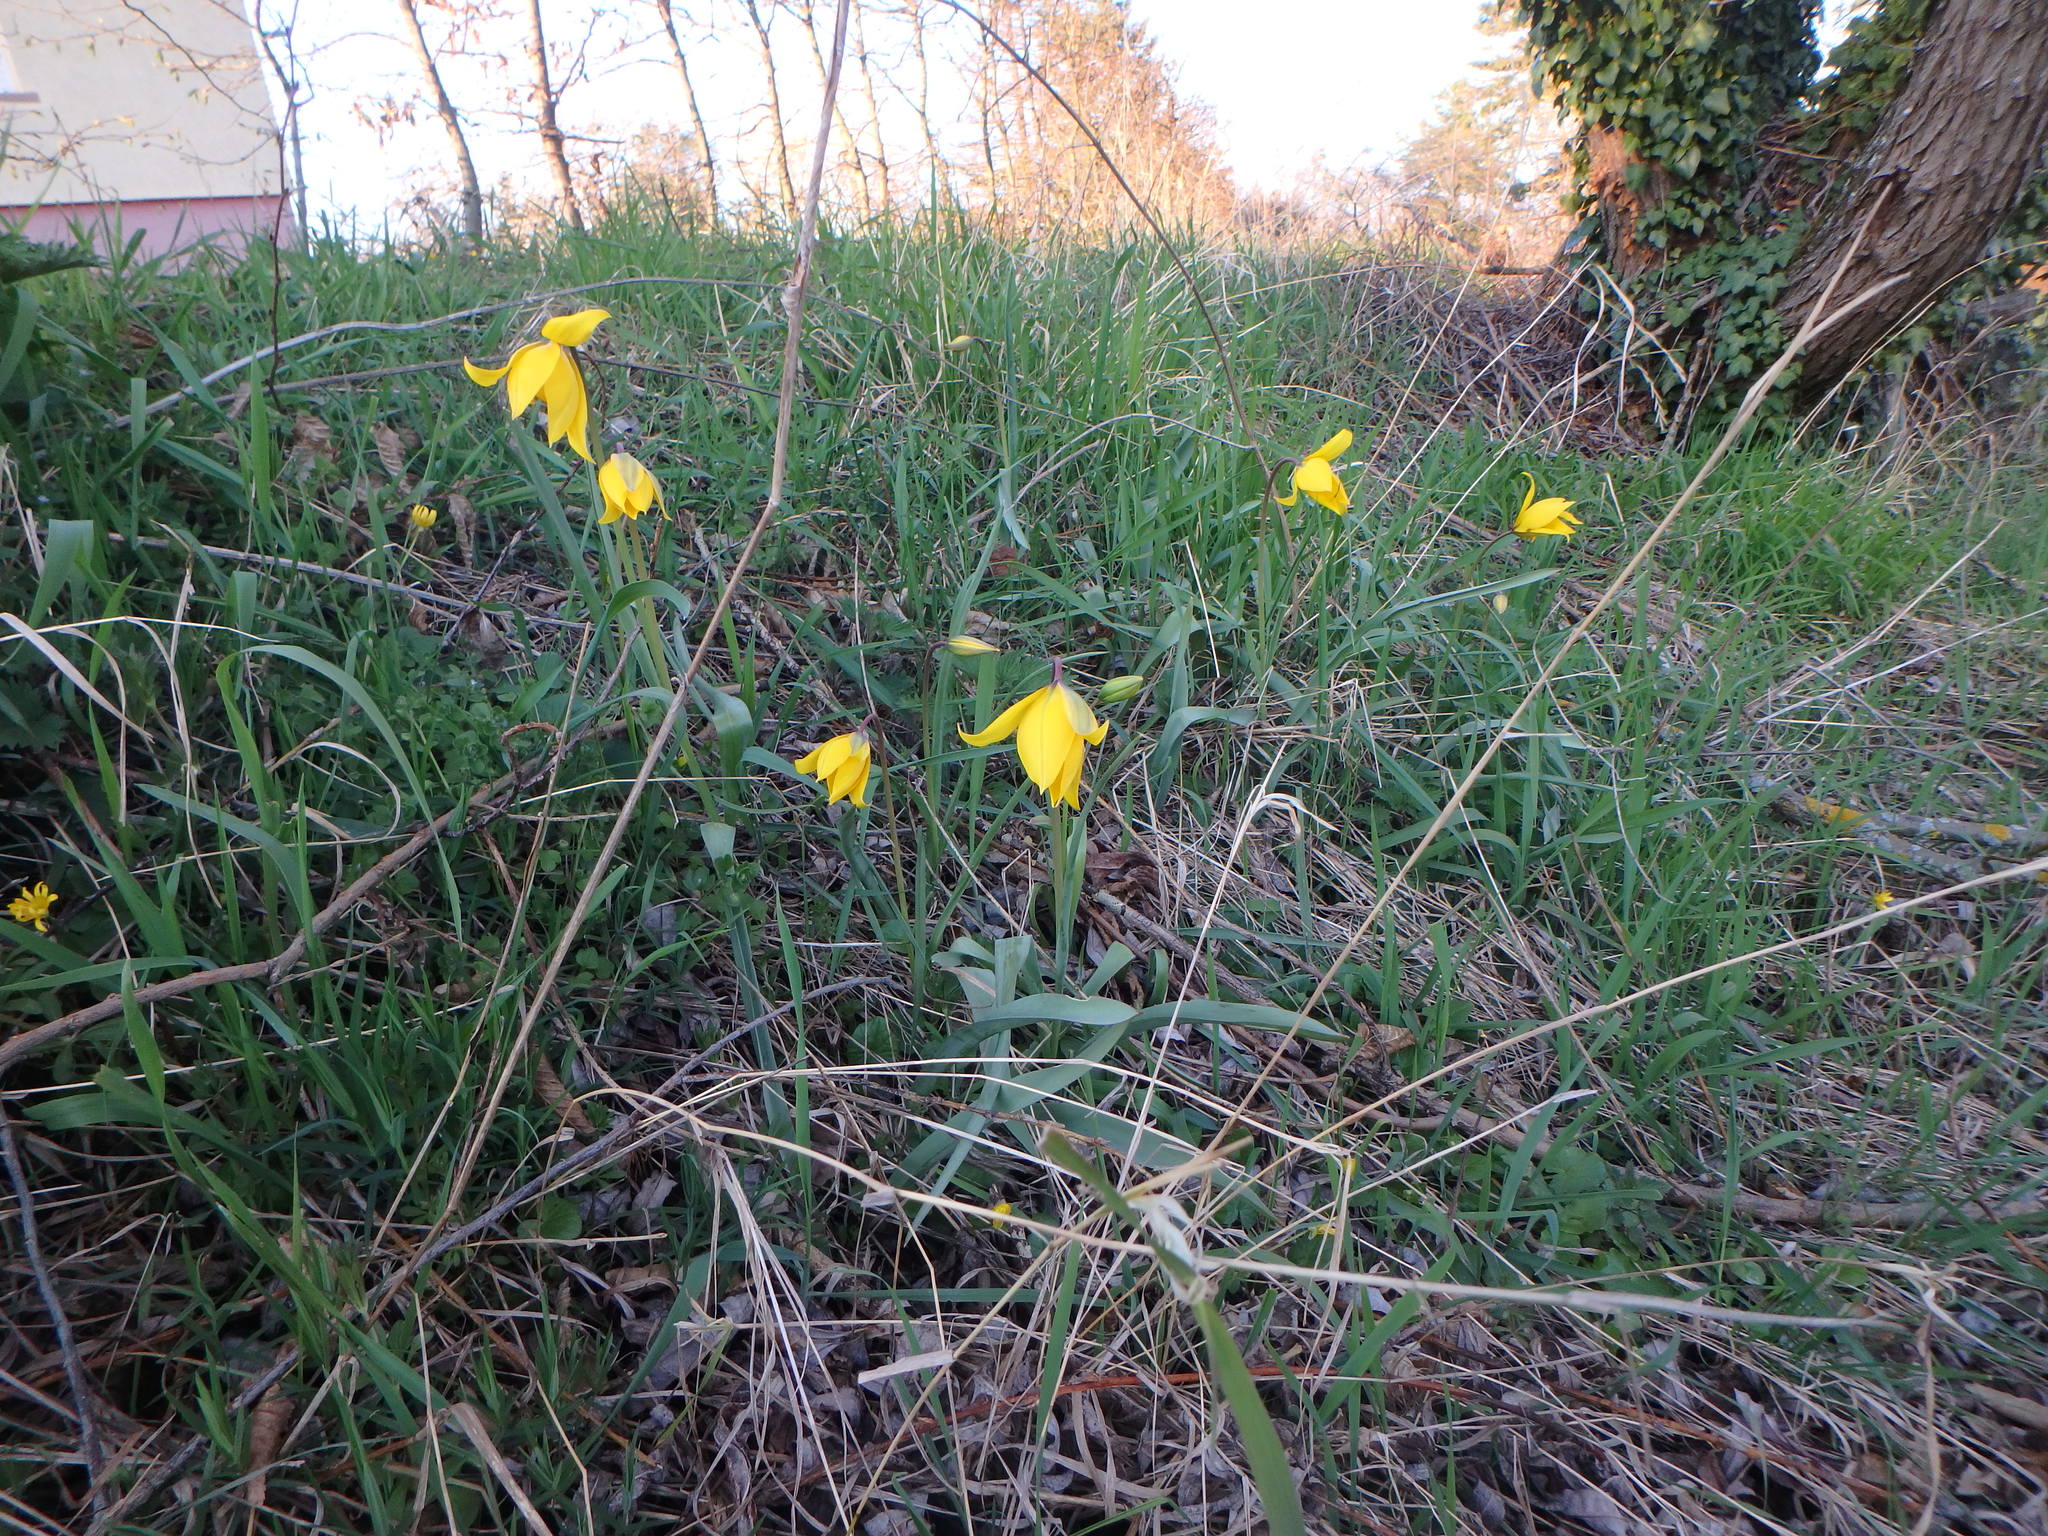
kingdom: Plantae
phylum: Tracheophyta
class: Liliopsida
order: Liliales
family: Liliaceae
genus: Tulipa
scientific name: Tulipa sylvestris
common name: Wild tulip
